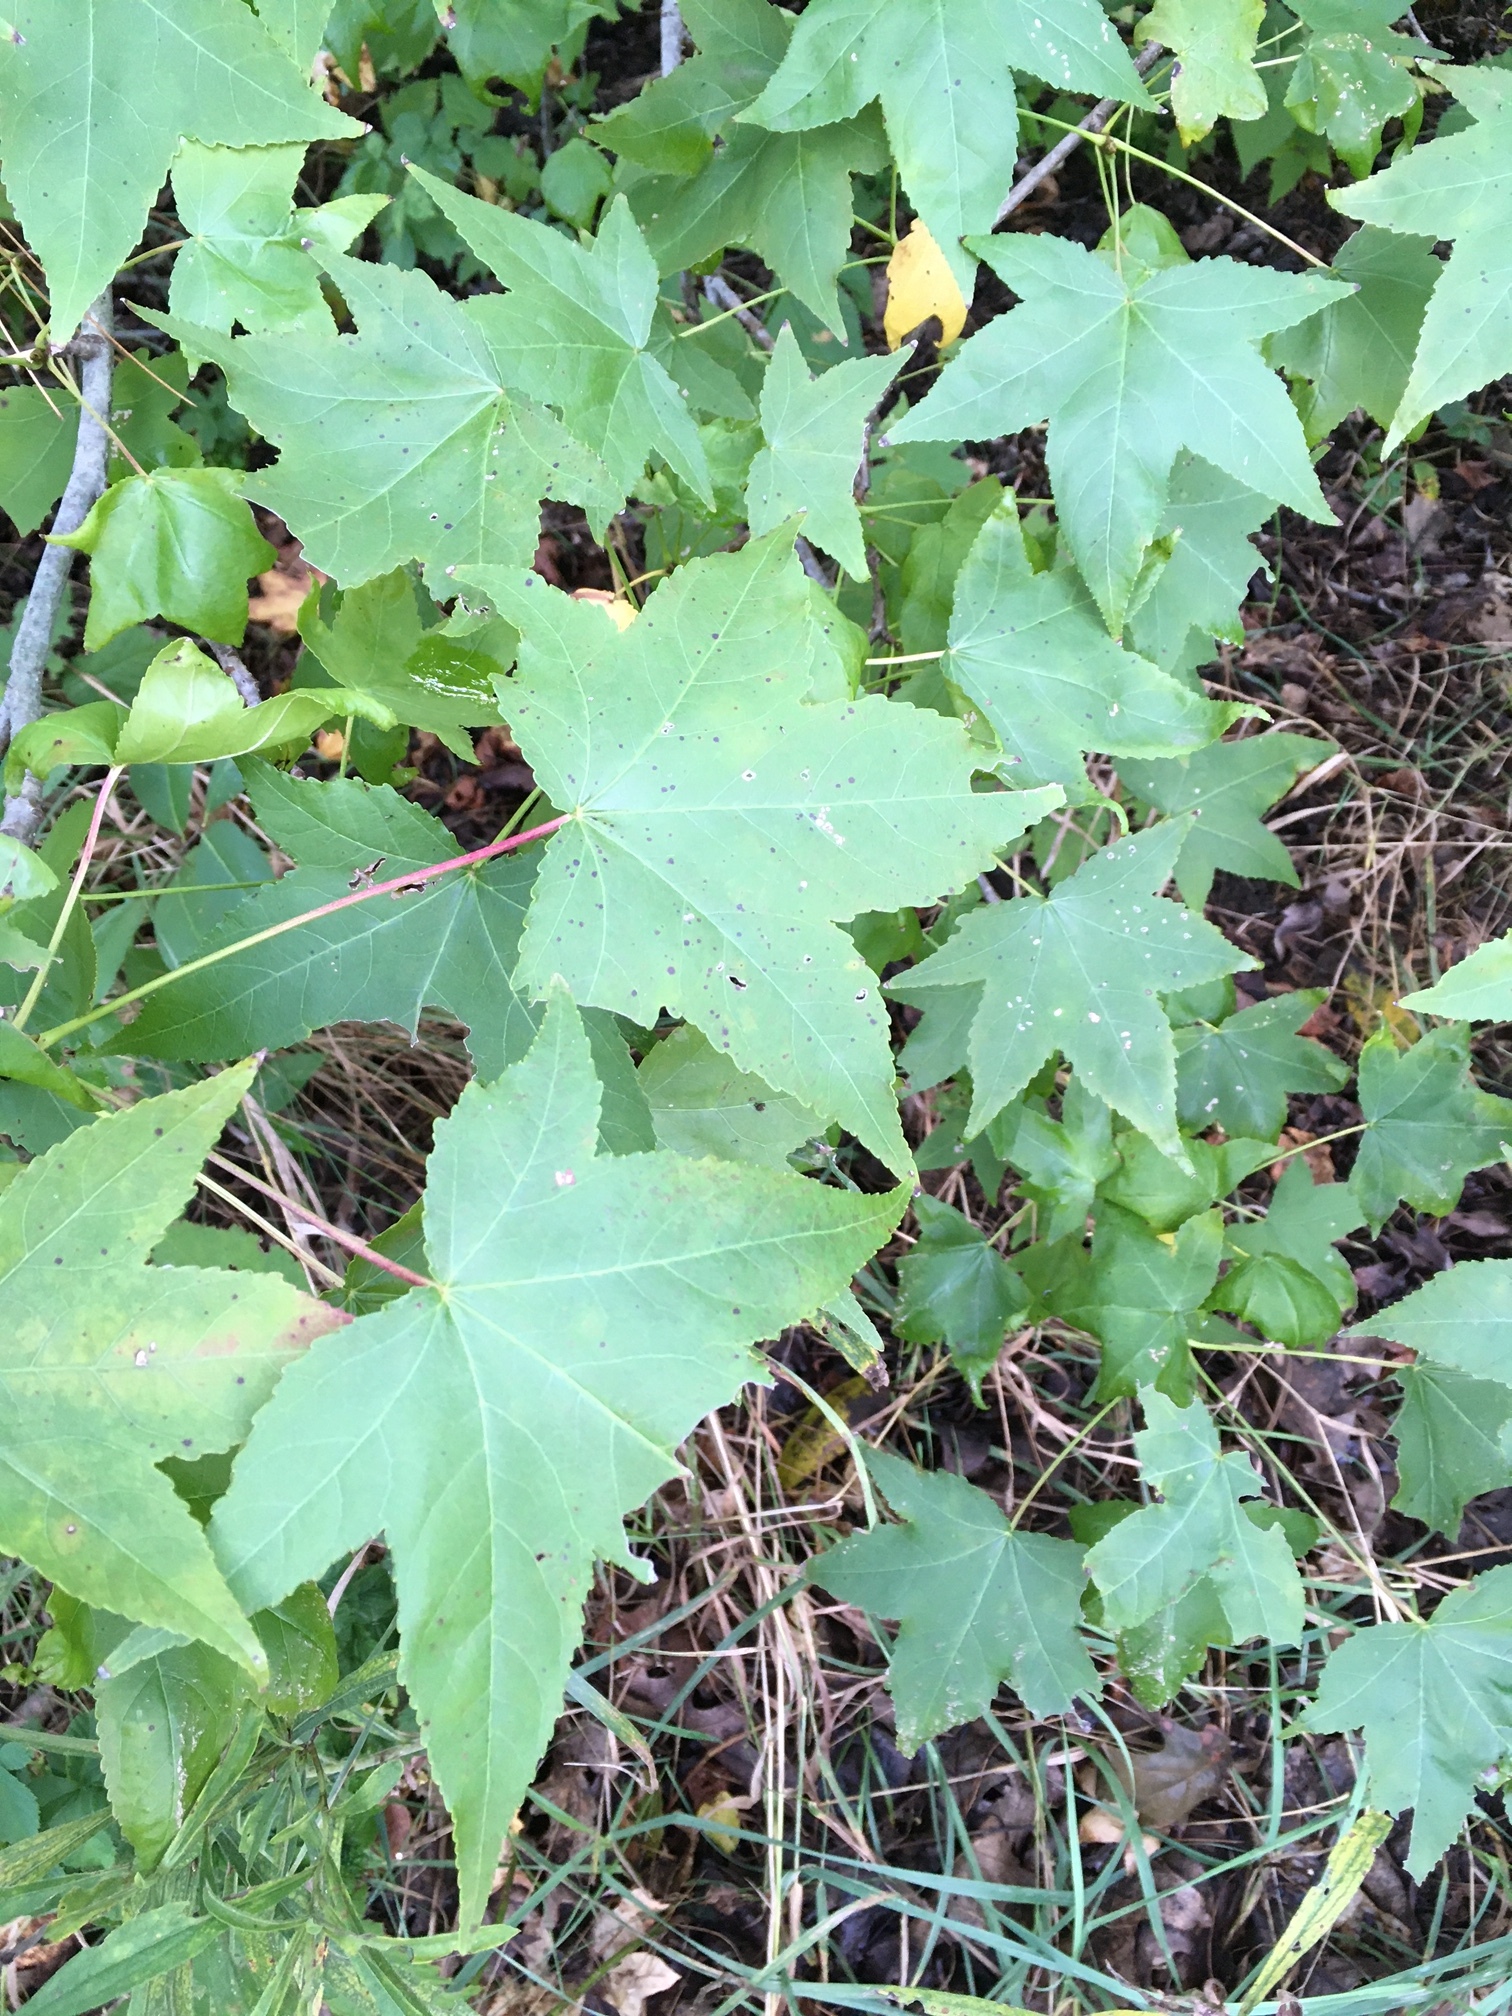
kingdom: Plantae
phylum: Tracheophyta
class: Magnoliopsida
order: Saxifragales
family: Altingiaceae
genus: Liquidambar
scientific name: Liquidambar styraciflua
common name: Sweet gum
